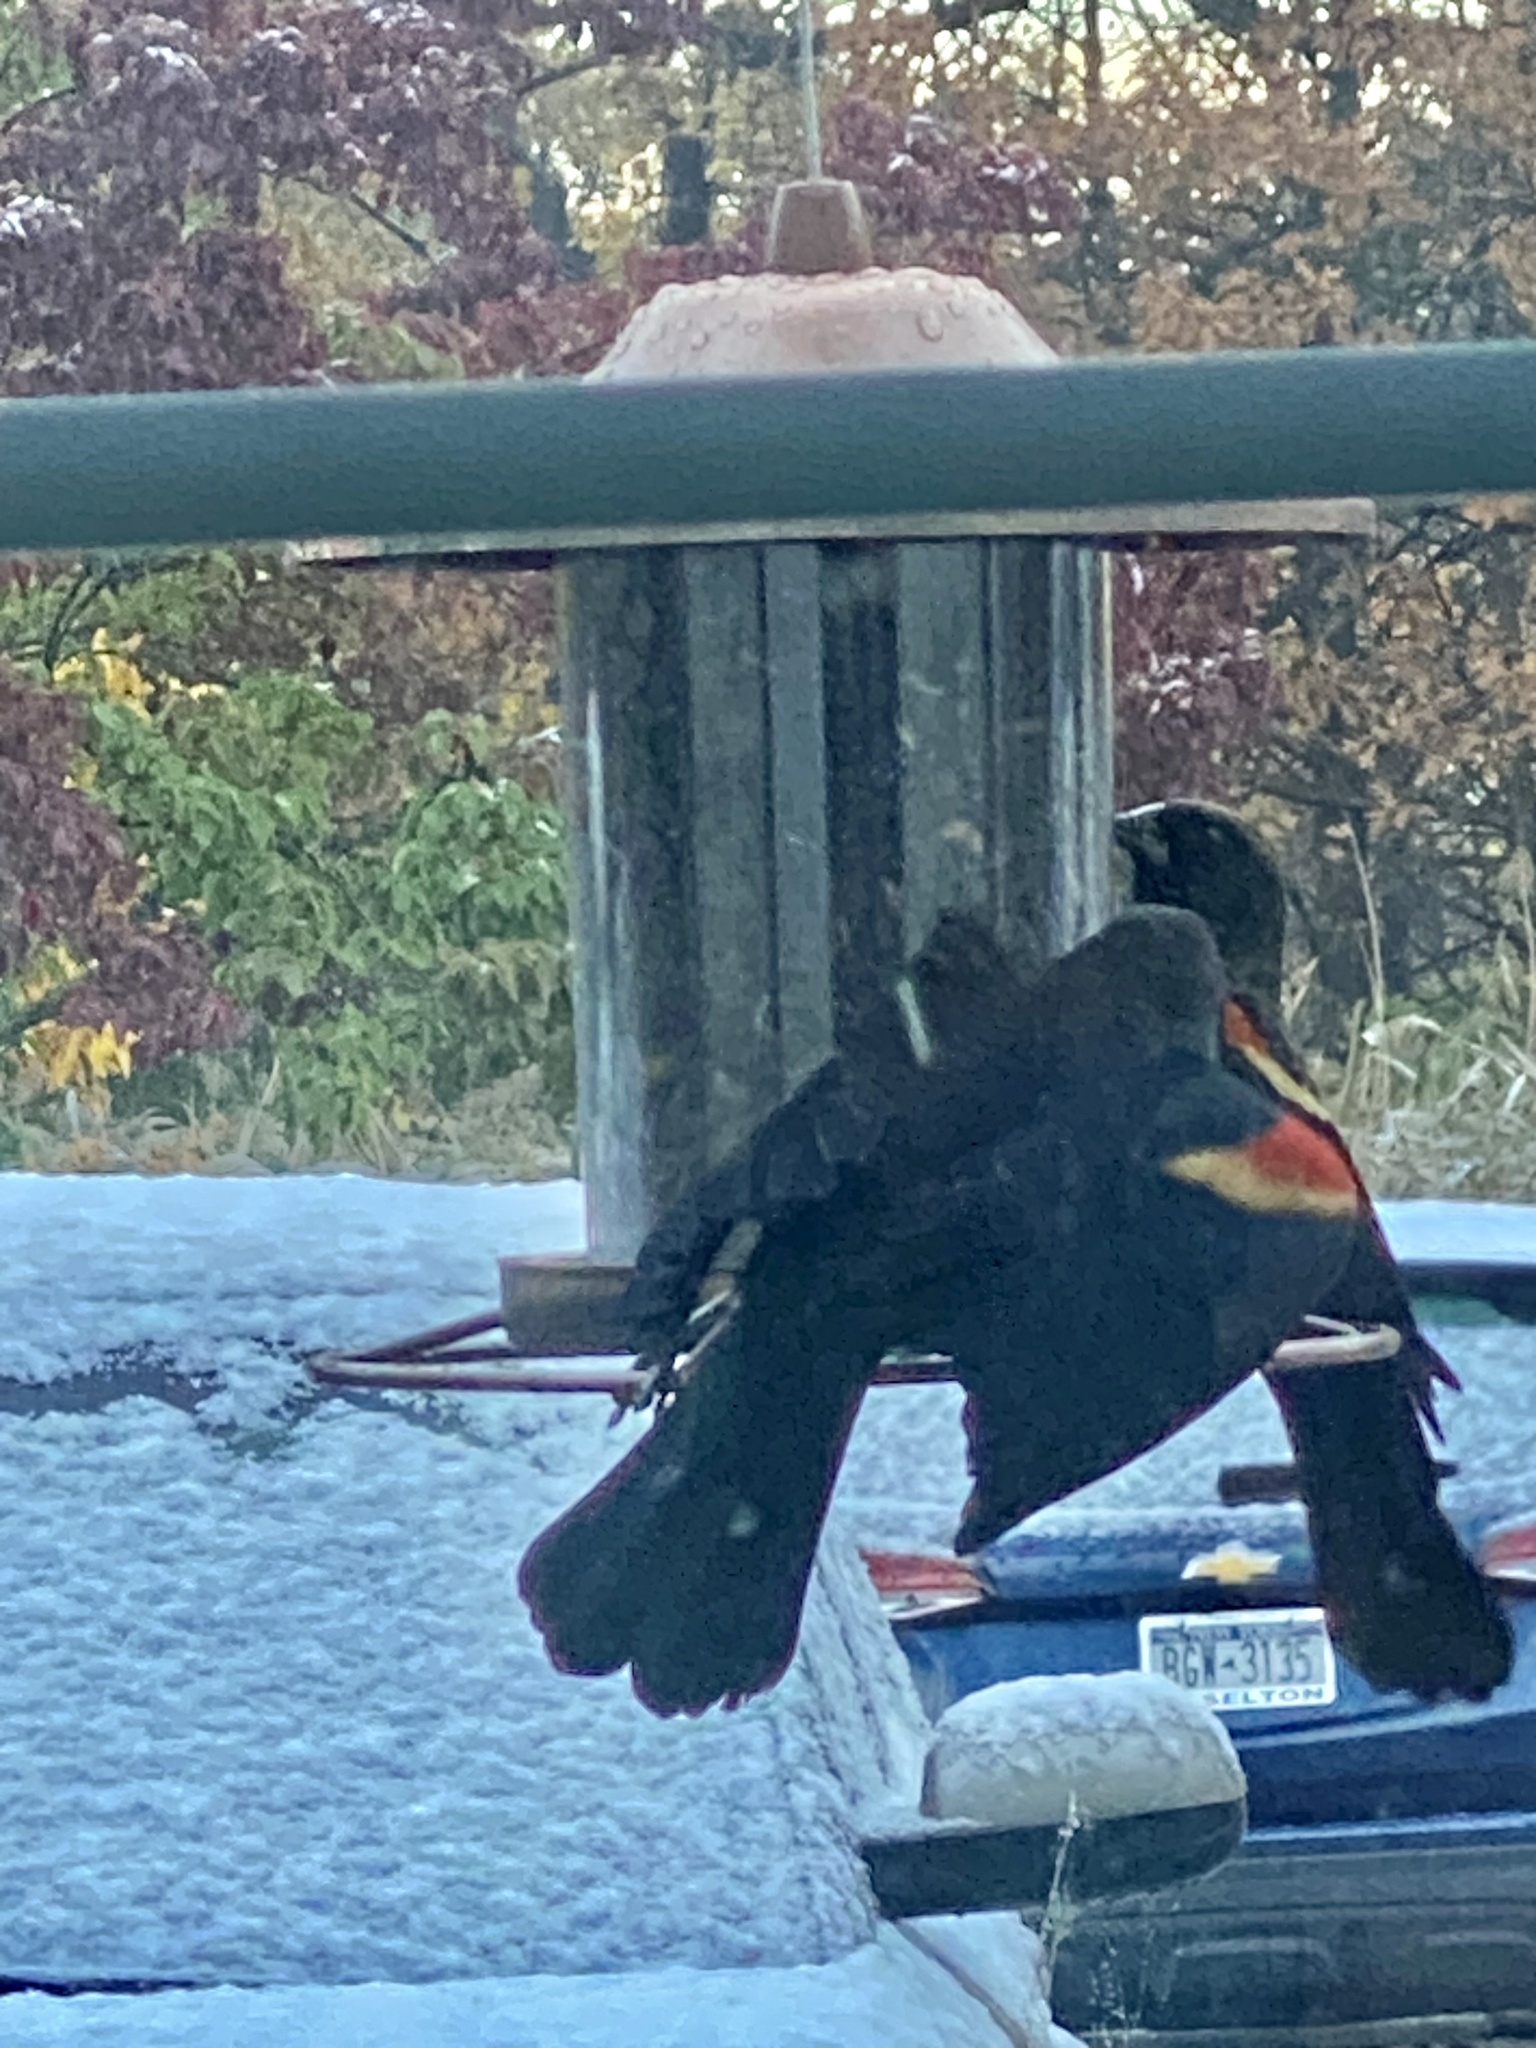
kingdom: Animalia
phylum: Chordata
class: Aves
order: Passeriformes
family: Icteridae
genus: Agelaius
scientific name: Agelaius phoeniceus
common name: Red-winged blackbird
